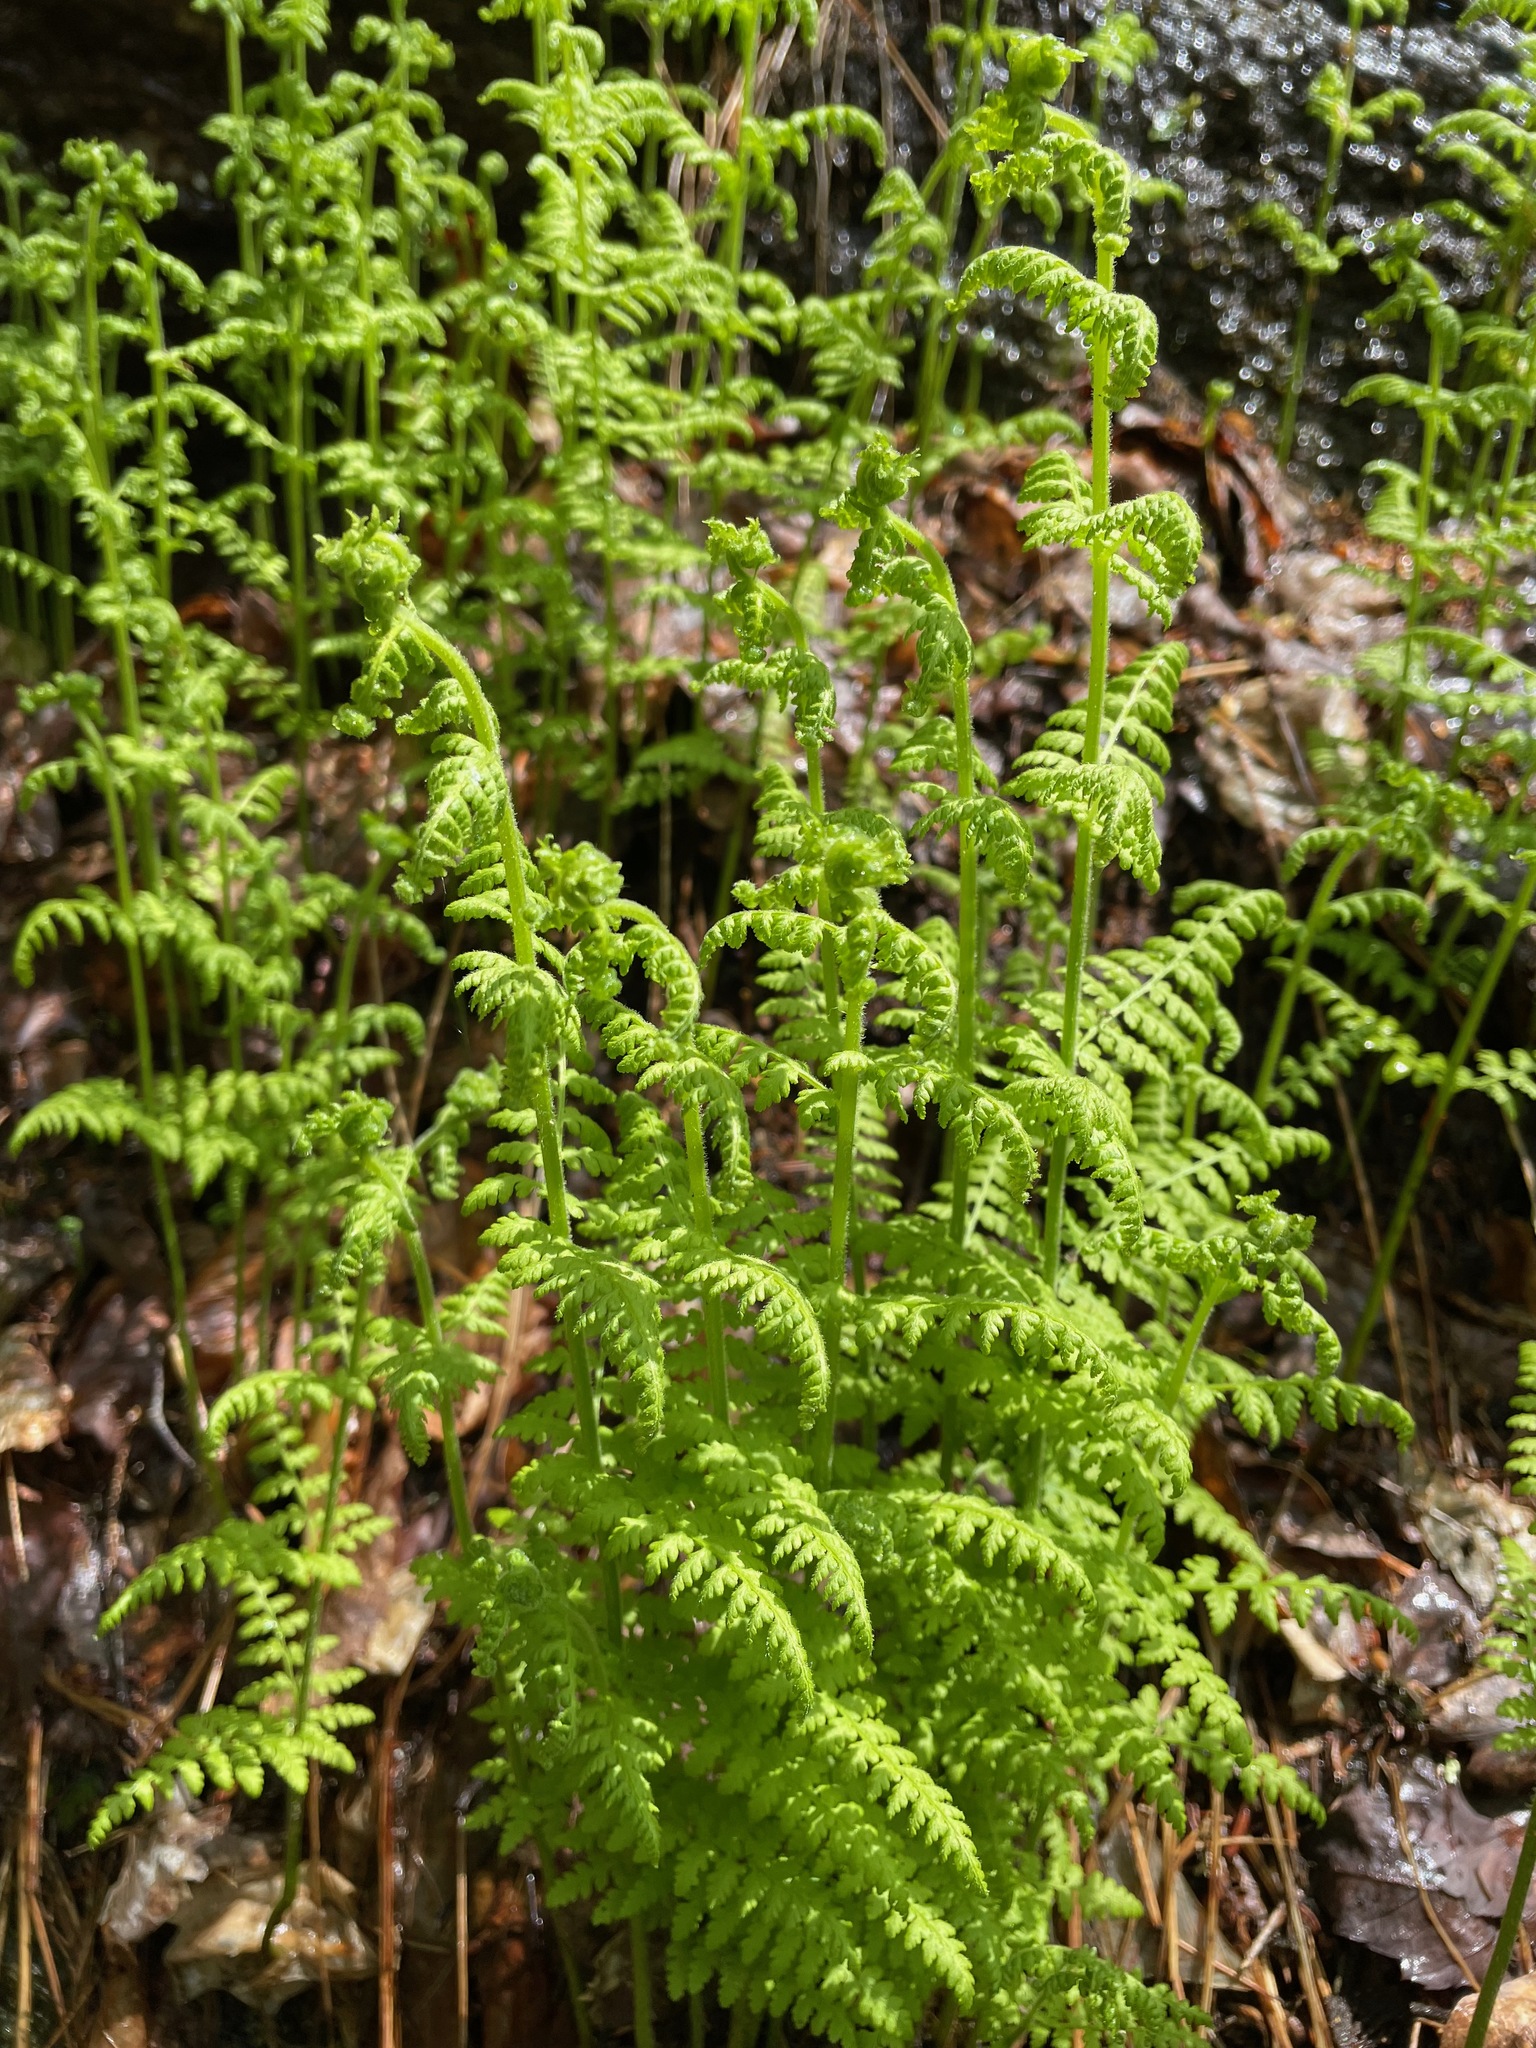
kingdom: Plantae
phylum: Tracheophyta
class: Polypodiopsida
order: Polypodiales
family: Dennstaedtiaceae
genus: Sitobolium
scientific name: Sitobolium punctilobum
